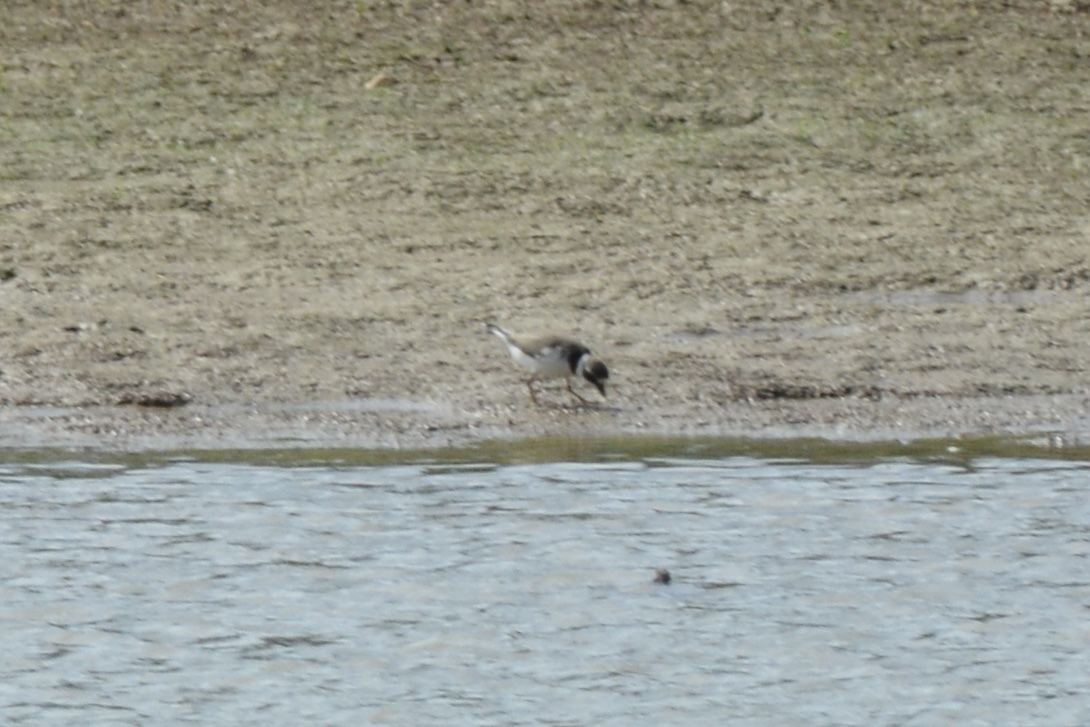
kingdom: Animalia
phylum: Chordata
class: Aves
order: Charadriiformes
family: Charadriidae
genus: Charadrius
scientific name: Charadrius semipalmatus
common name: Semipalmated plover
